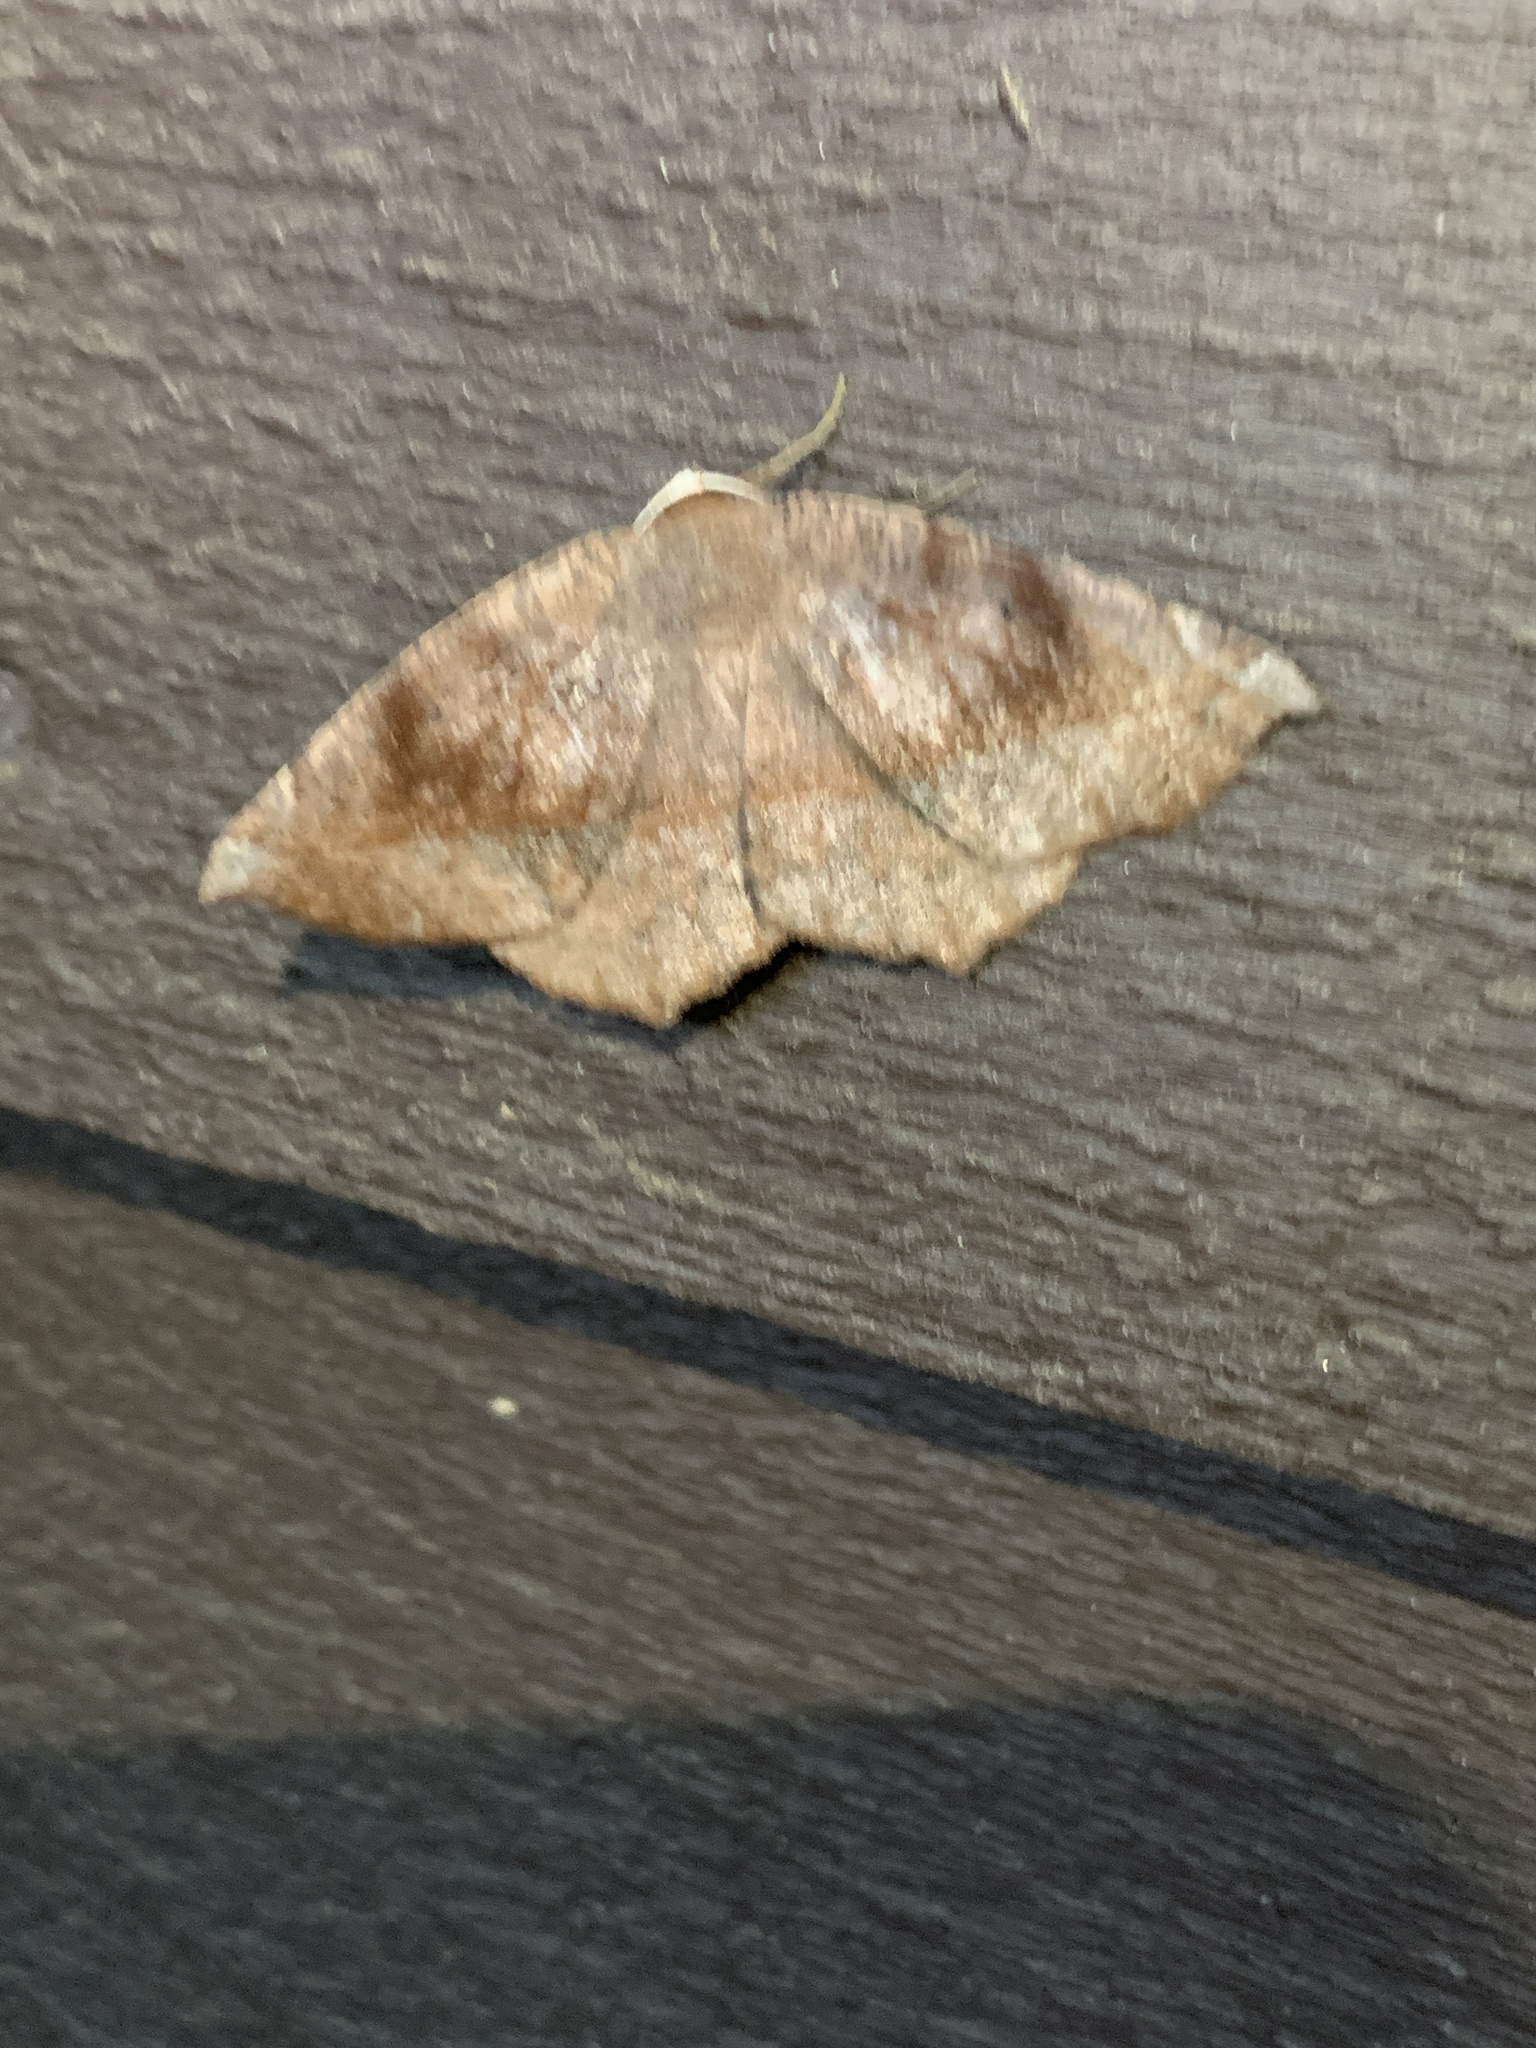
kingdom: Animalia
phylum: Arthropoda
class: Insecta
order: Lepidoptera
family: Geometridae
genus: Eutrapela
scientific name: Eutrapela clemataria
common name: Curved-toothed geometer
